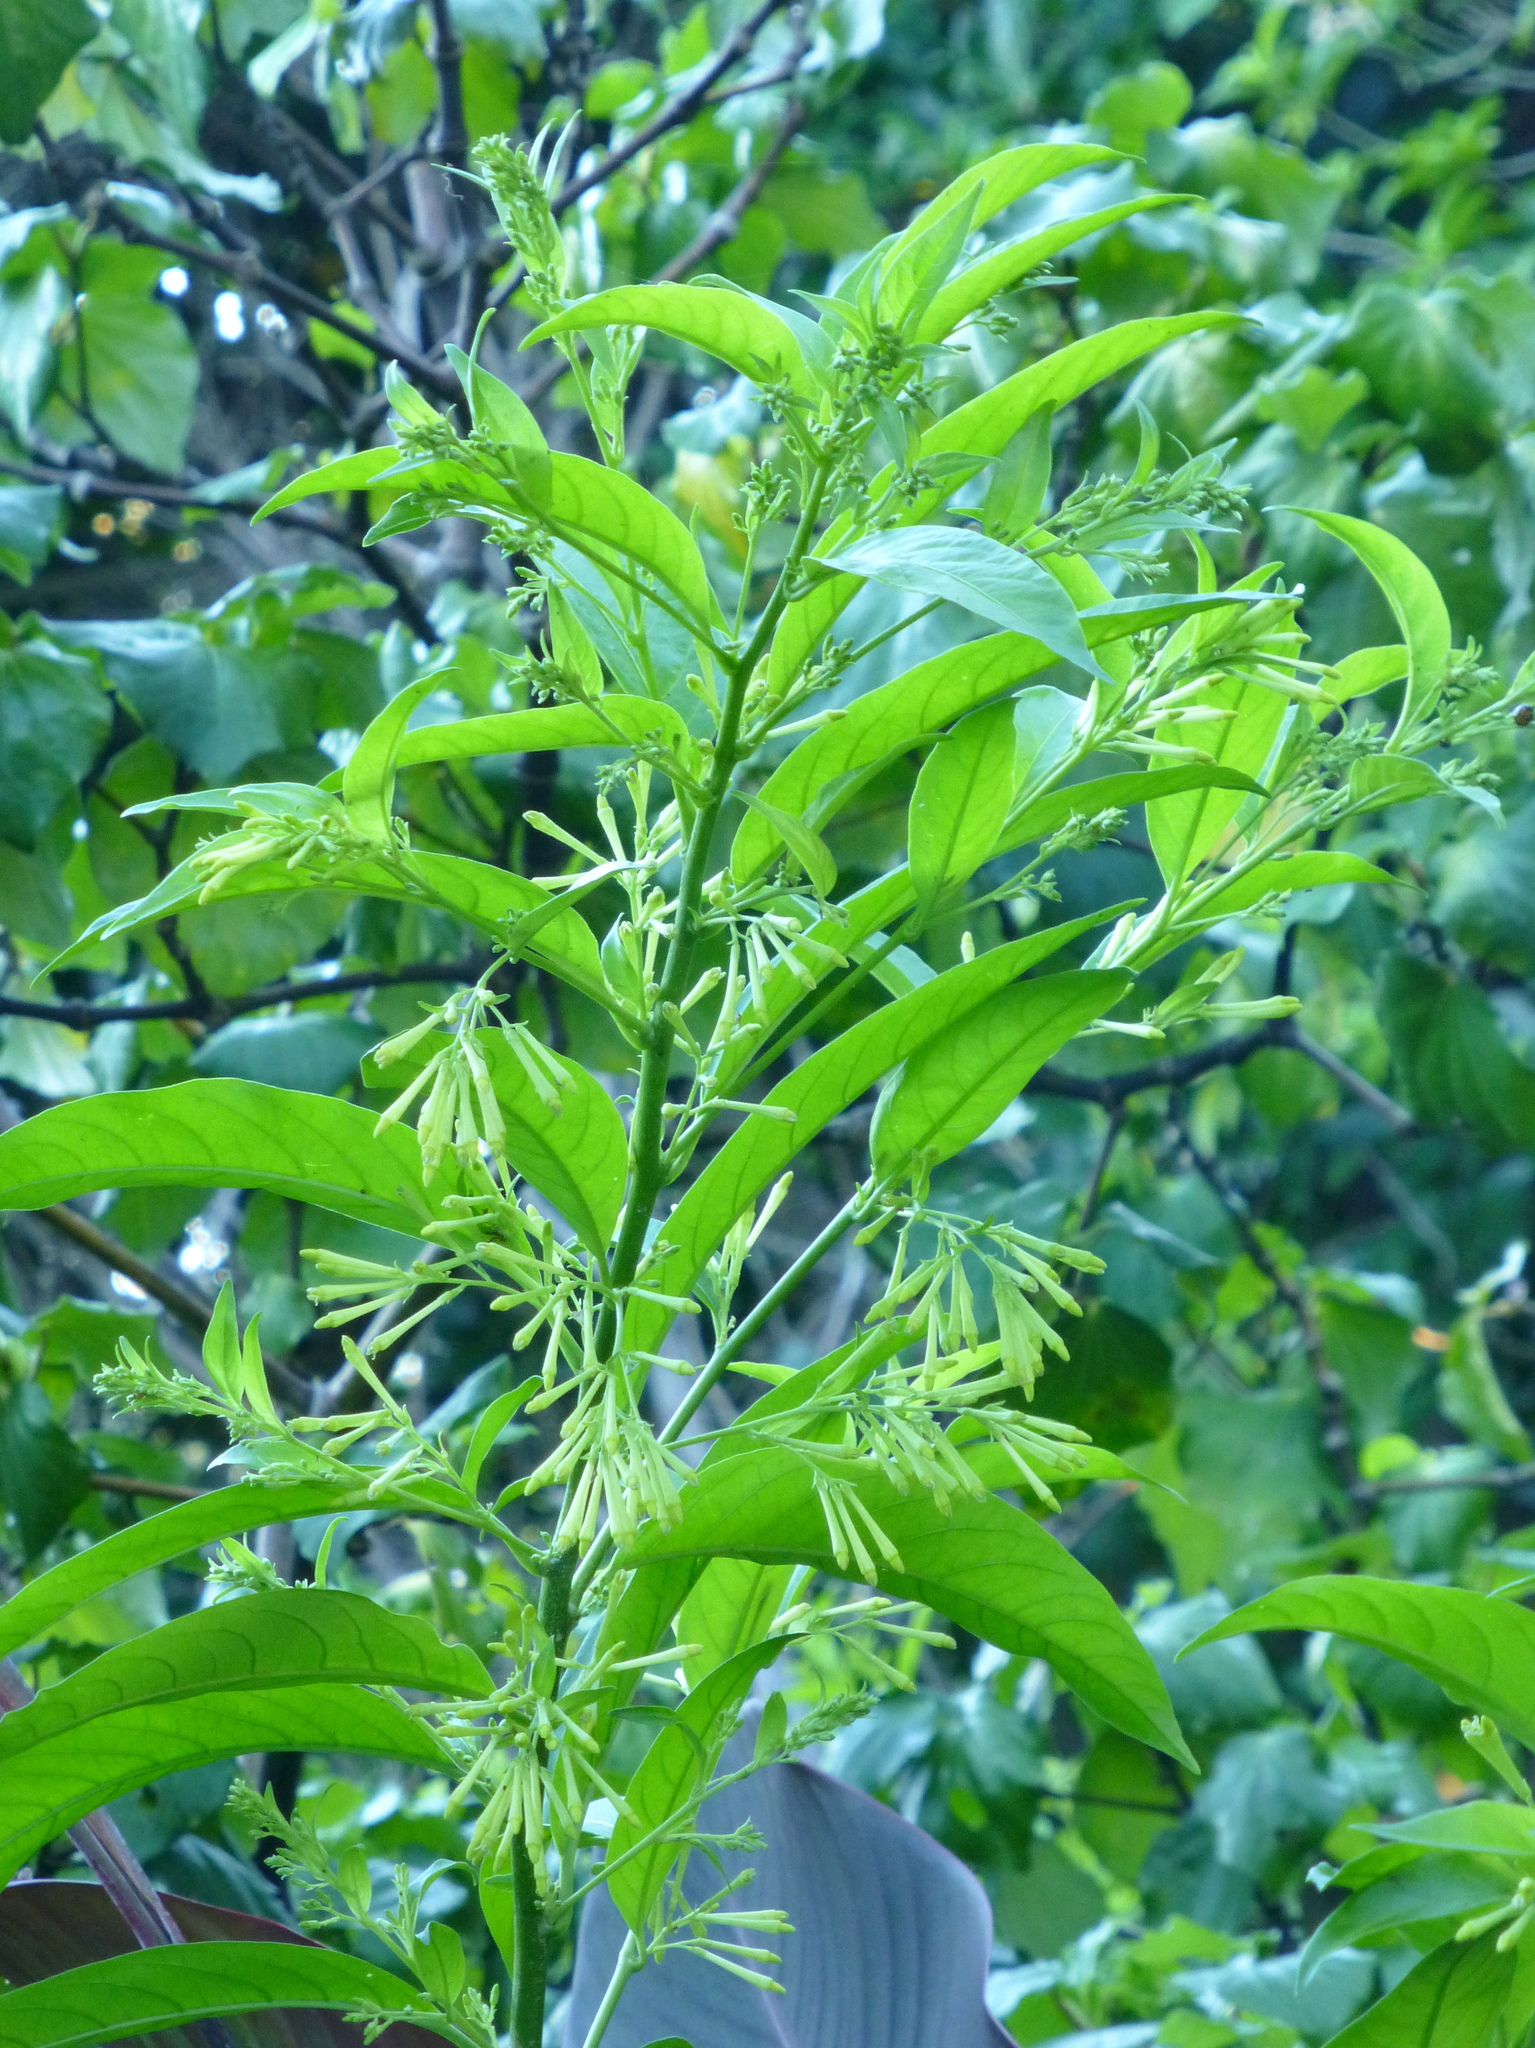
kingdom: Plantae
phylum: Tracheophyta
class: Magnoliopsida
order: Solanales
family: Solanaceae
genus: Cestrum
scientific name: Cestrum nocturnum
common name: Night jessamine
